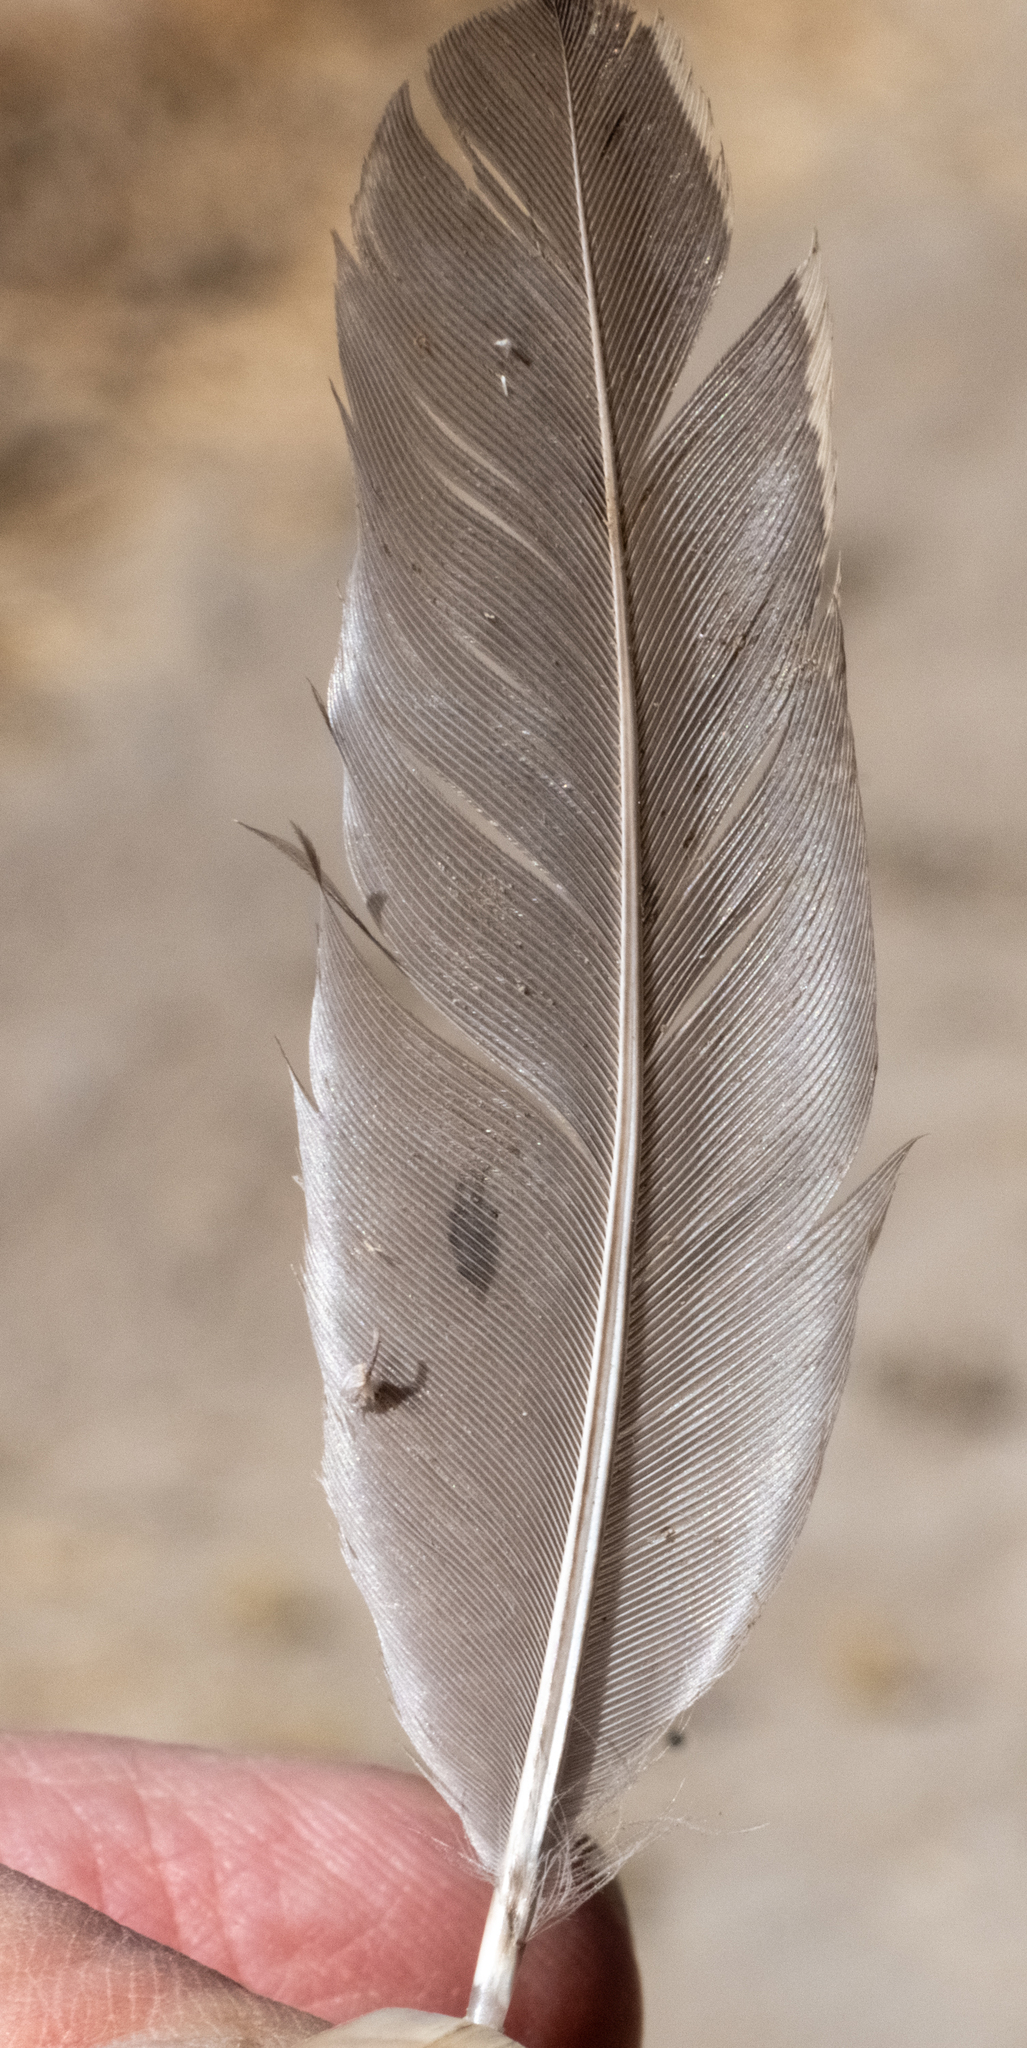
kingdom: Animalia
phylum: Chordata
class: Aves
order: Galliformes
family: Odontophoridae
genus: Callipepla
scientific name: Callipepla californica
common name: California quail
